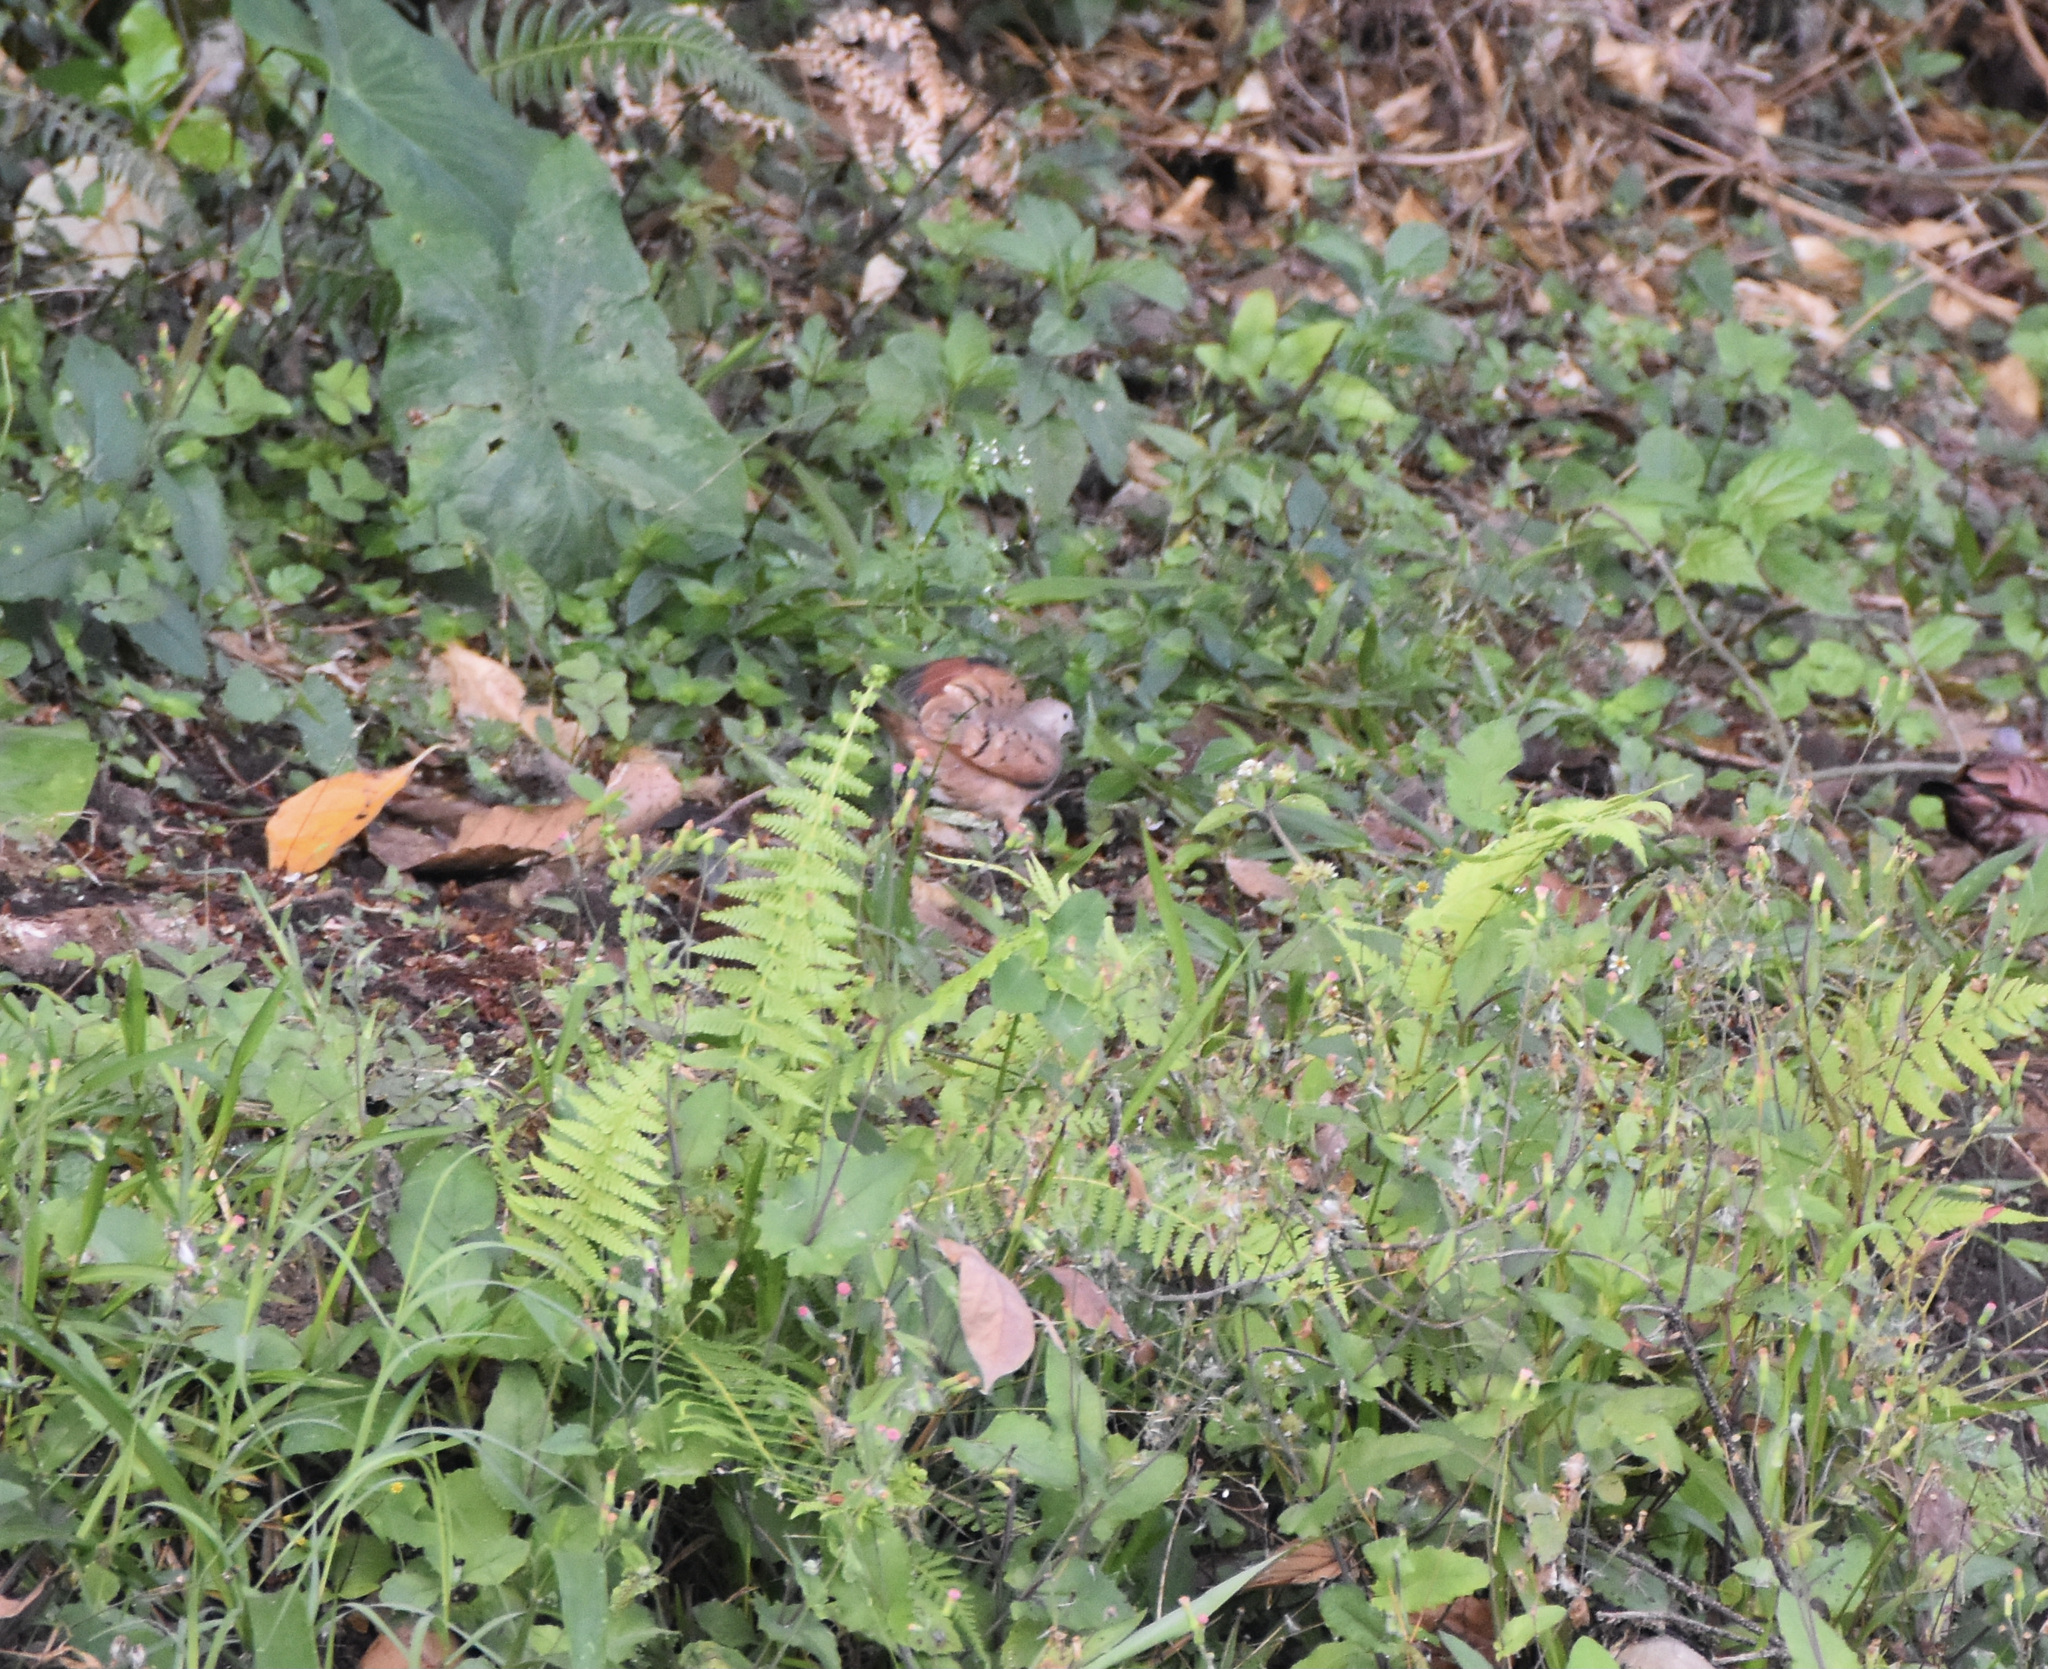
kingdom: Animalia
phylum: Chordata
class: Aves
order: Columbiformes
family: Columbidae
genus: Columbina
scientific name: Columbina talpacoti
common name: Ruddy ground dove
